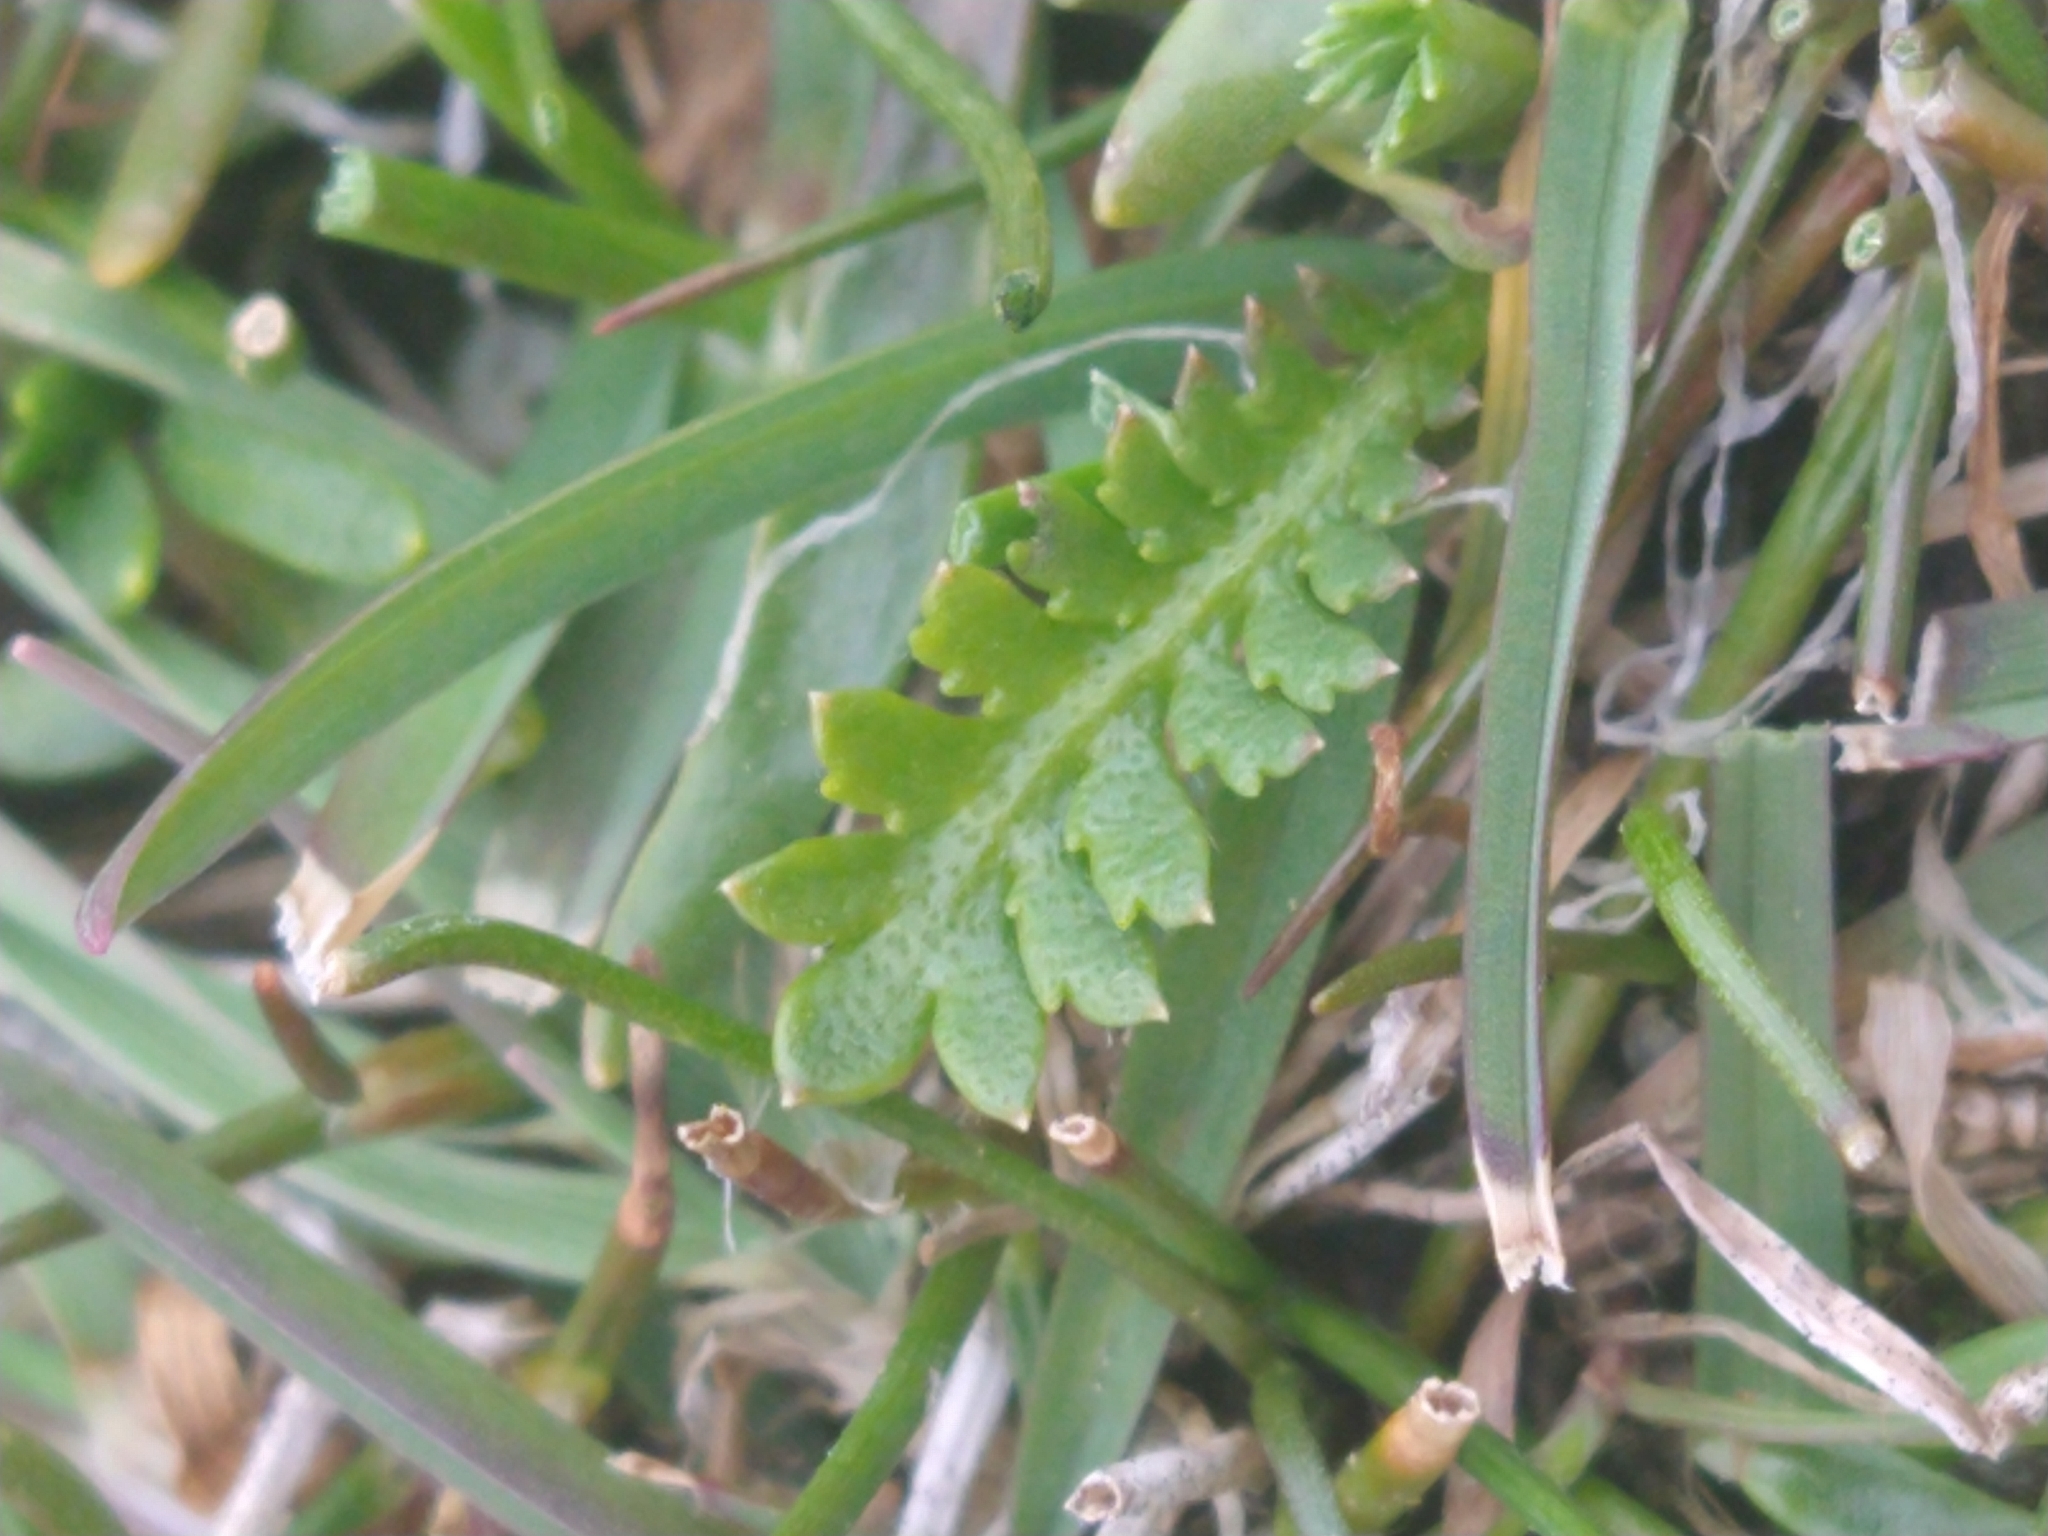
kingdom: Plantae
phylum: Tracheophyta
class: Magnoliopsida
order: Asterales
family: Asteraceae
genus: Leptinella
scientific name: Leptinella scariosa
